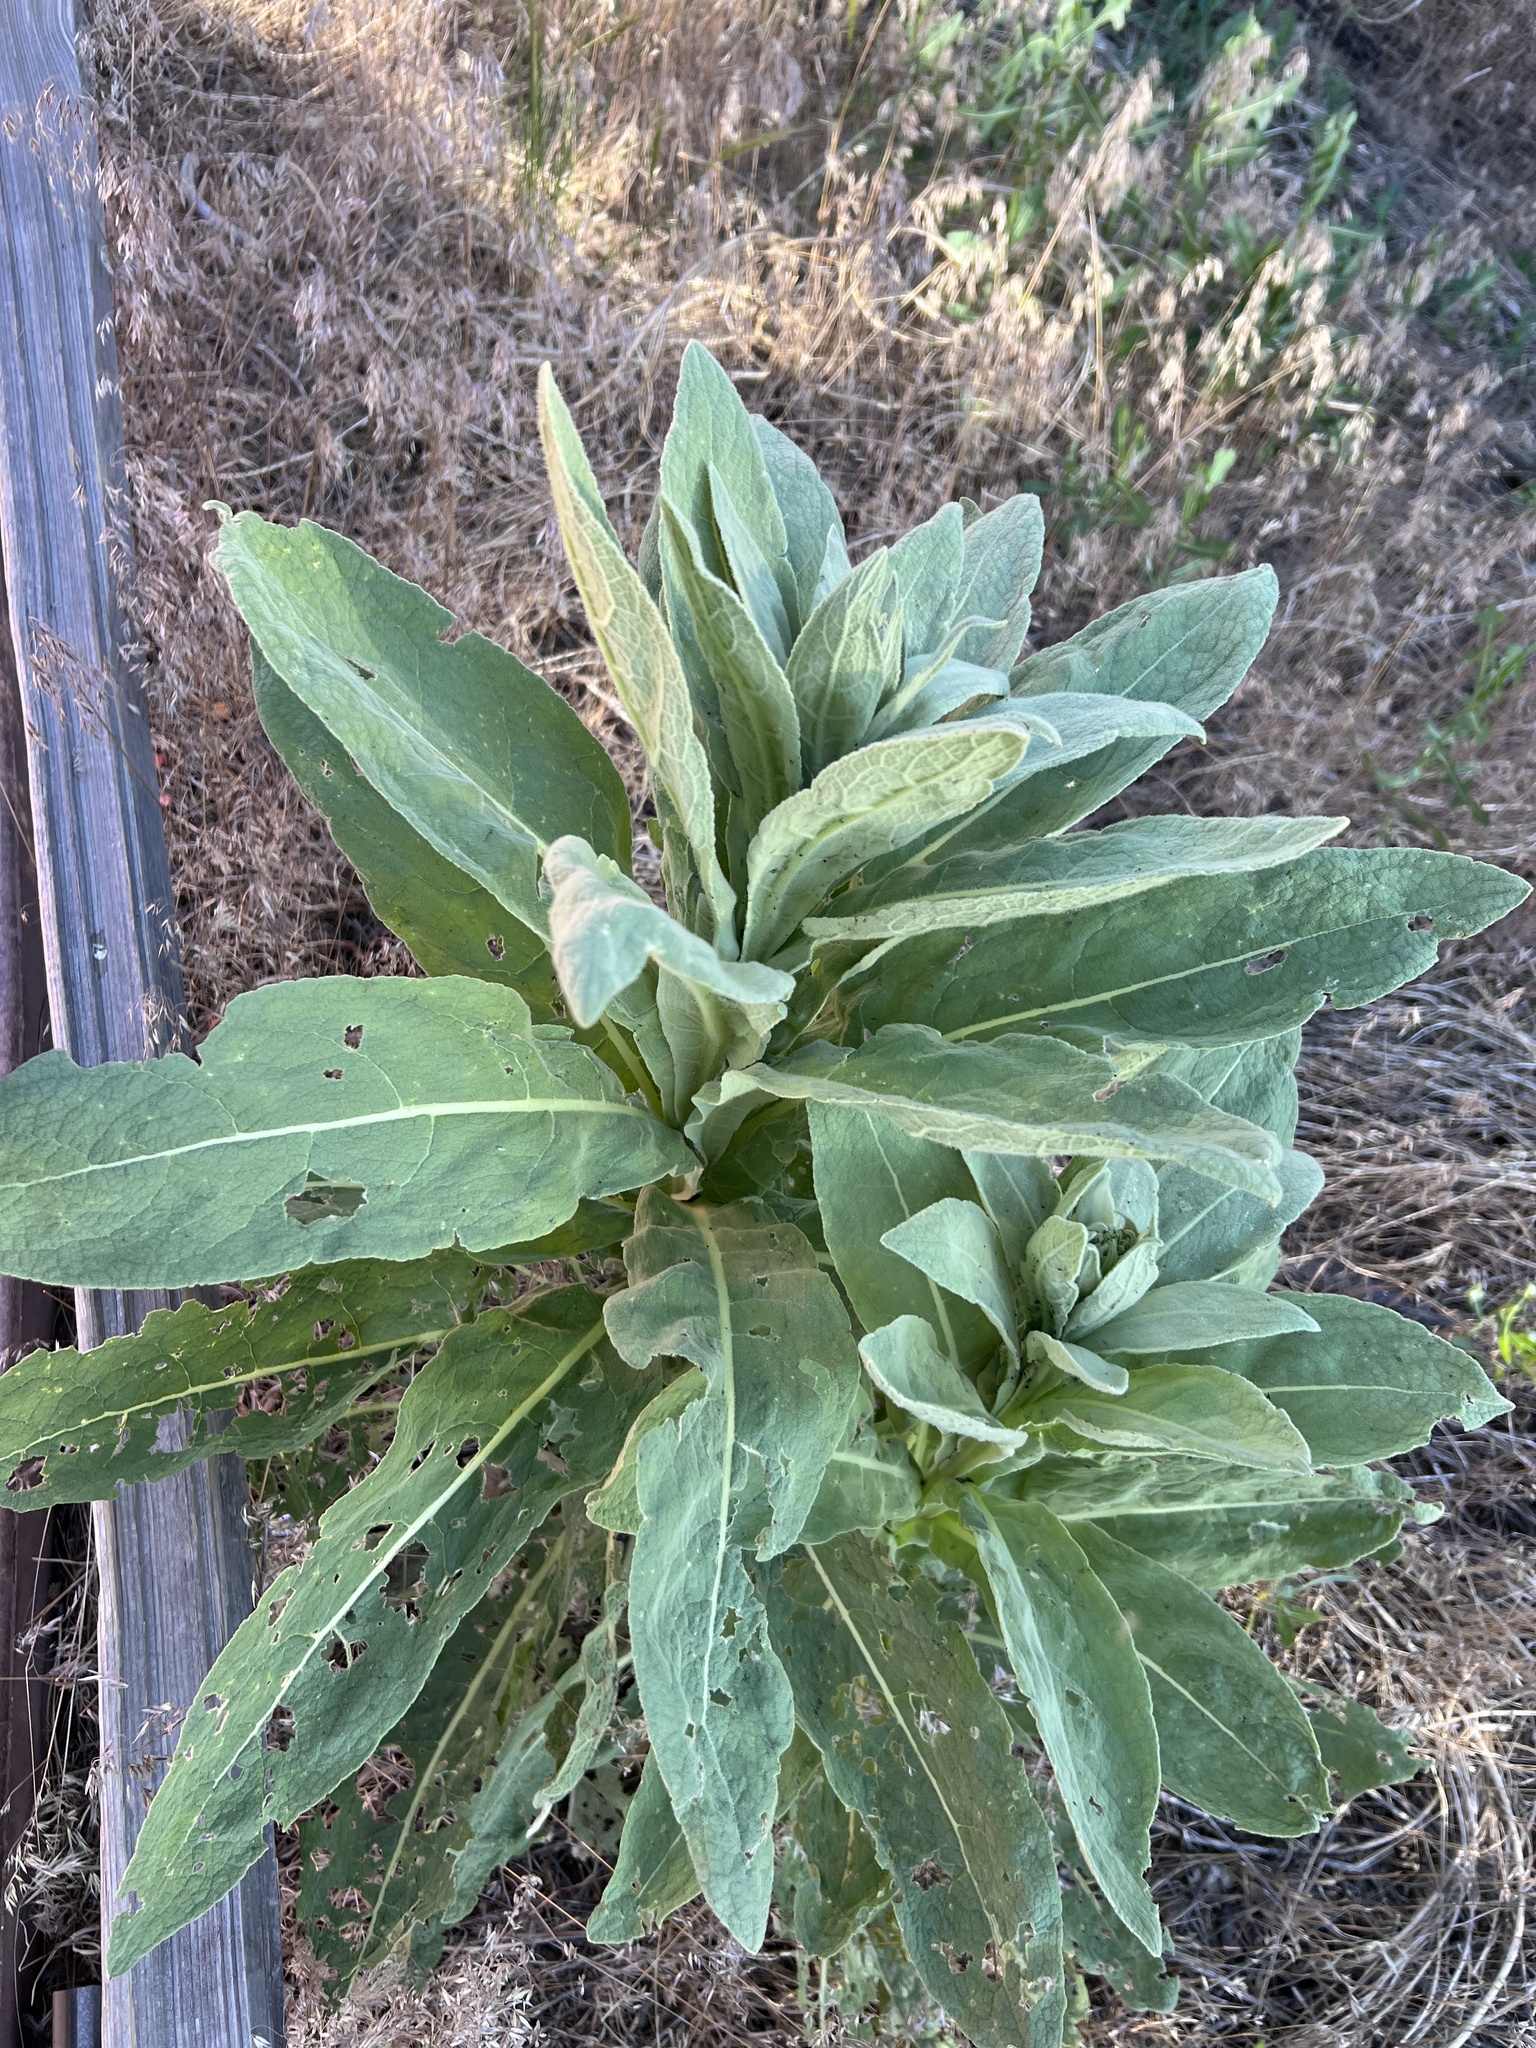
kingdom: Plantae
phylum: Tracheophyta
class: Magnoliopsida
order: Lamiales
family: Scrophulariaceae
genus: Verbascum
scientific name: Verbascum thapsus
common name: Common mullein
